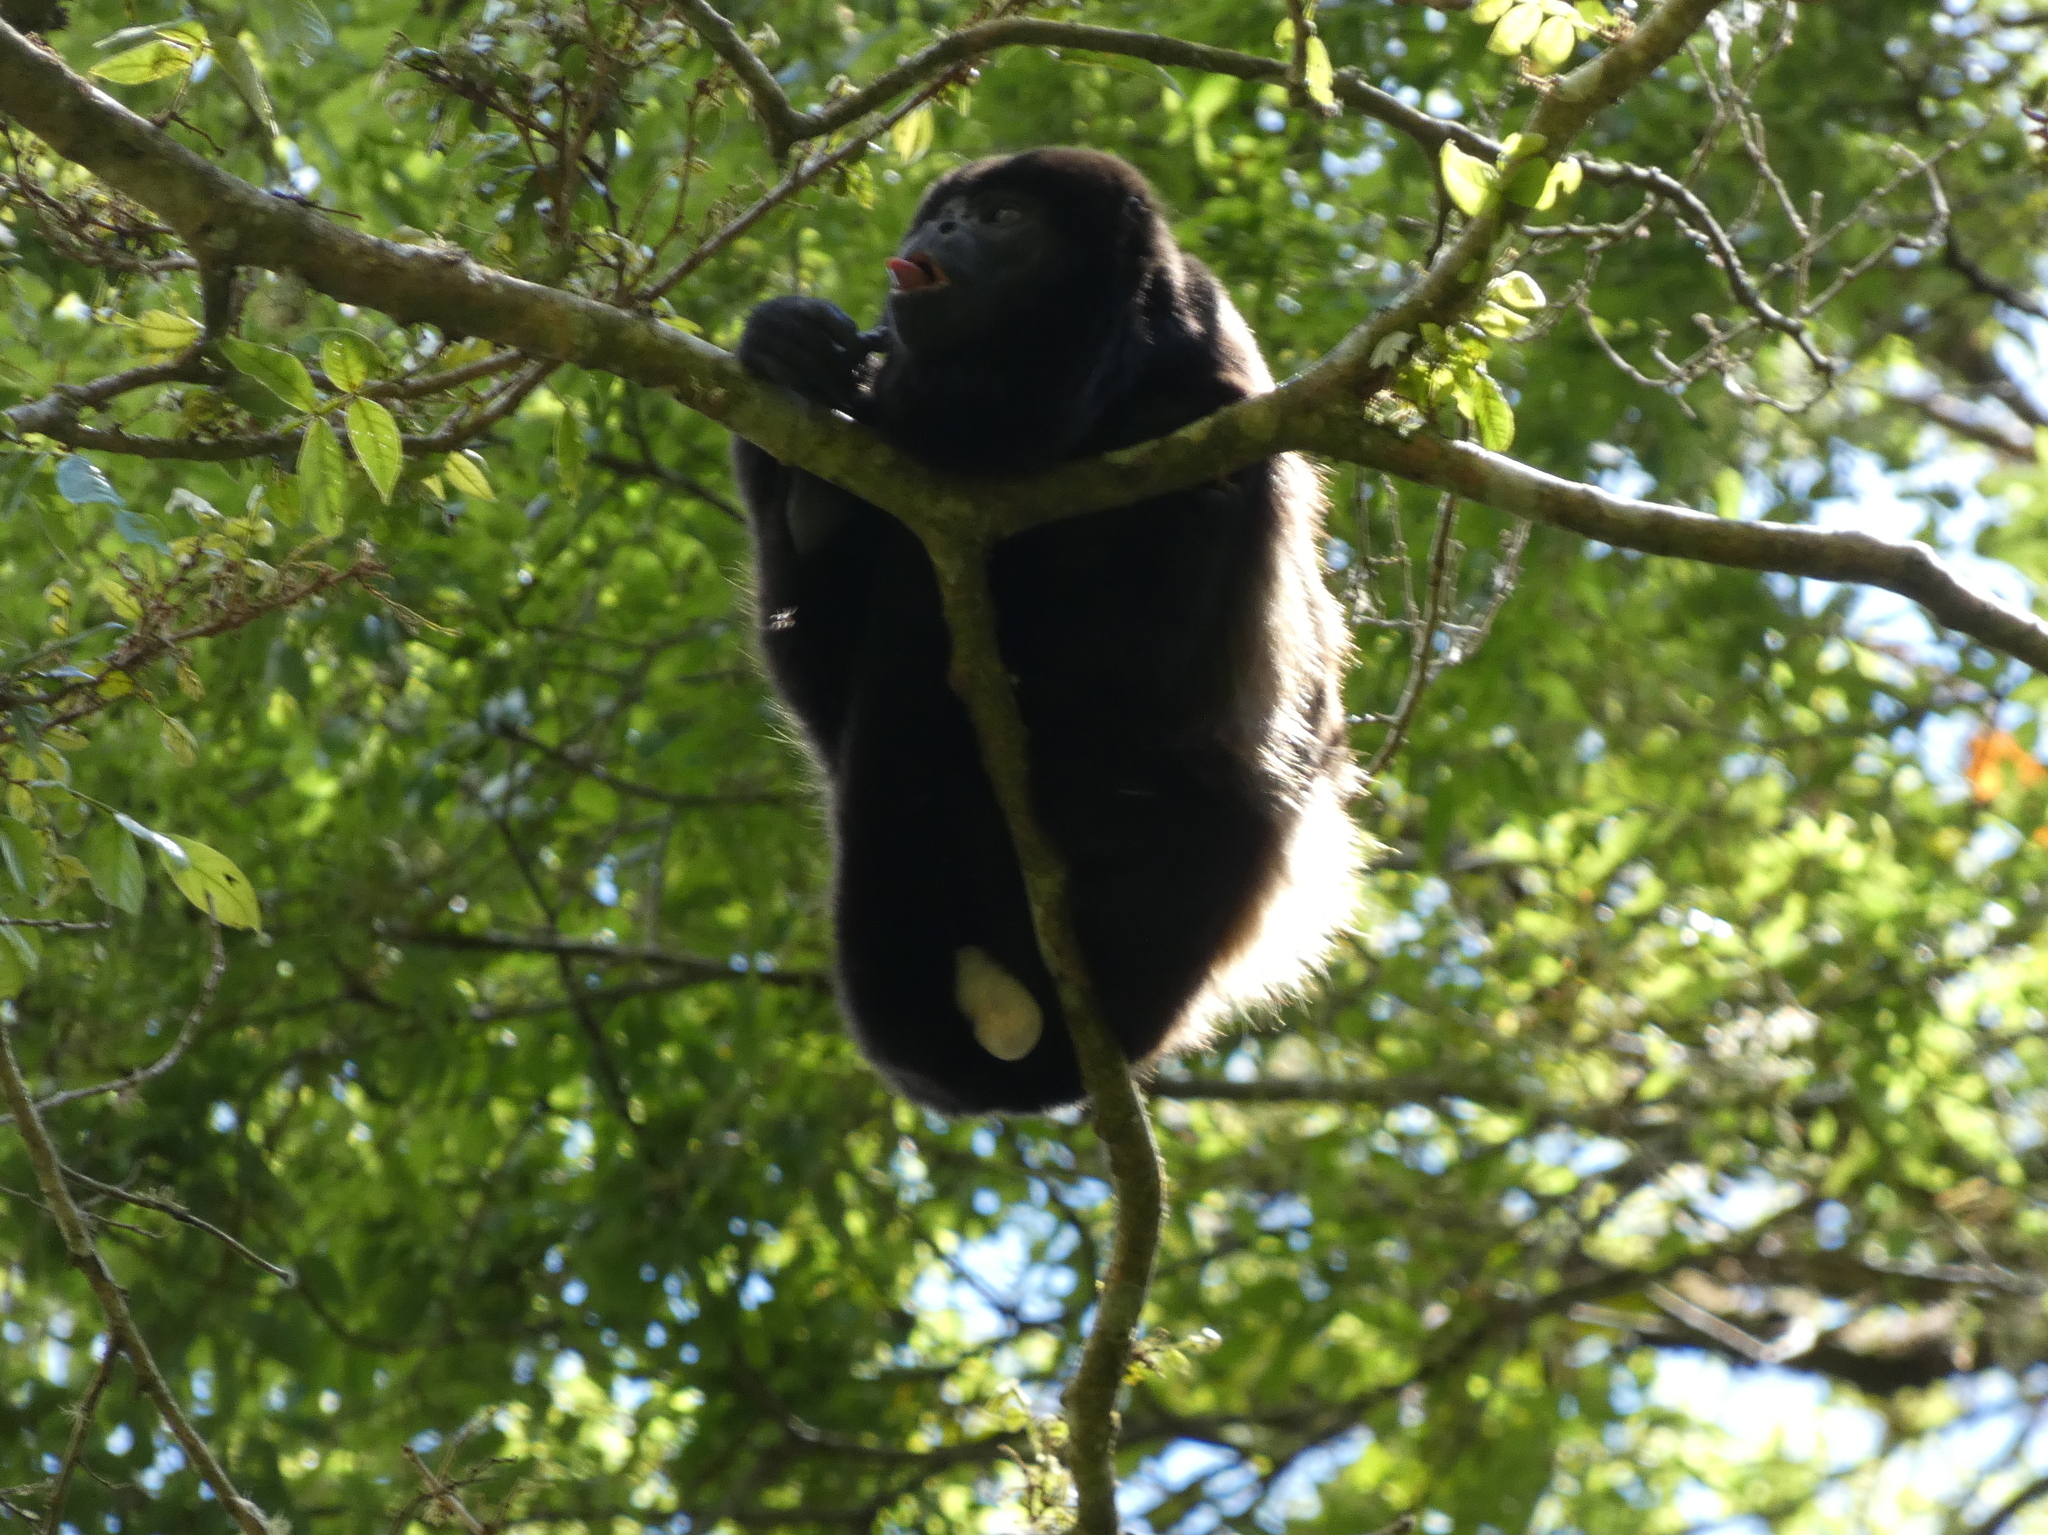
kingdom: Animalia
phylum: Chordata
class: Mammalia
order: Primates
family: Atelidae
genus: Alouatta
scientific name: Alouatta palliata
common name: Mantled howler
